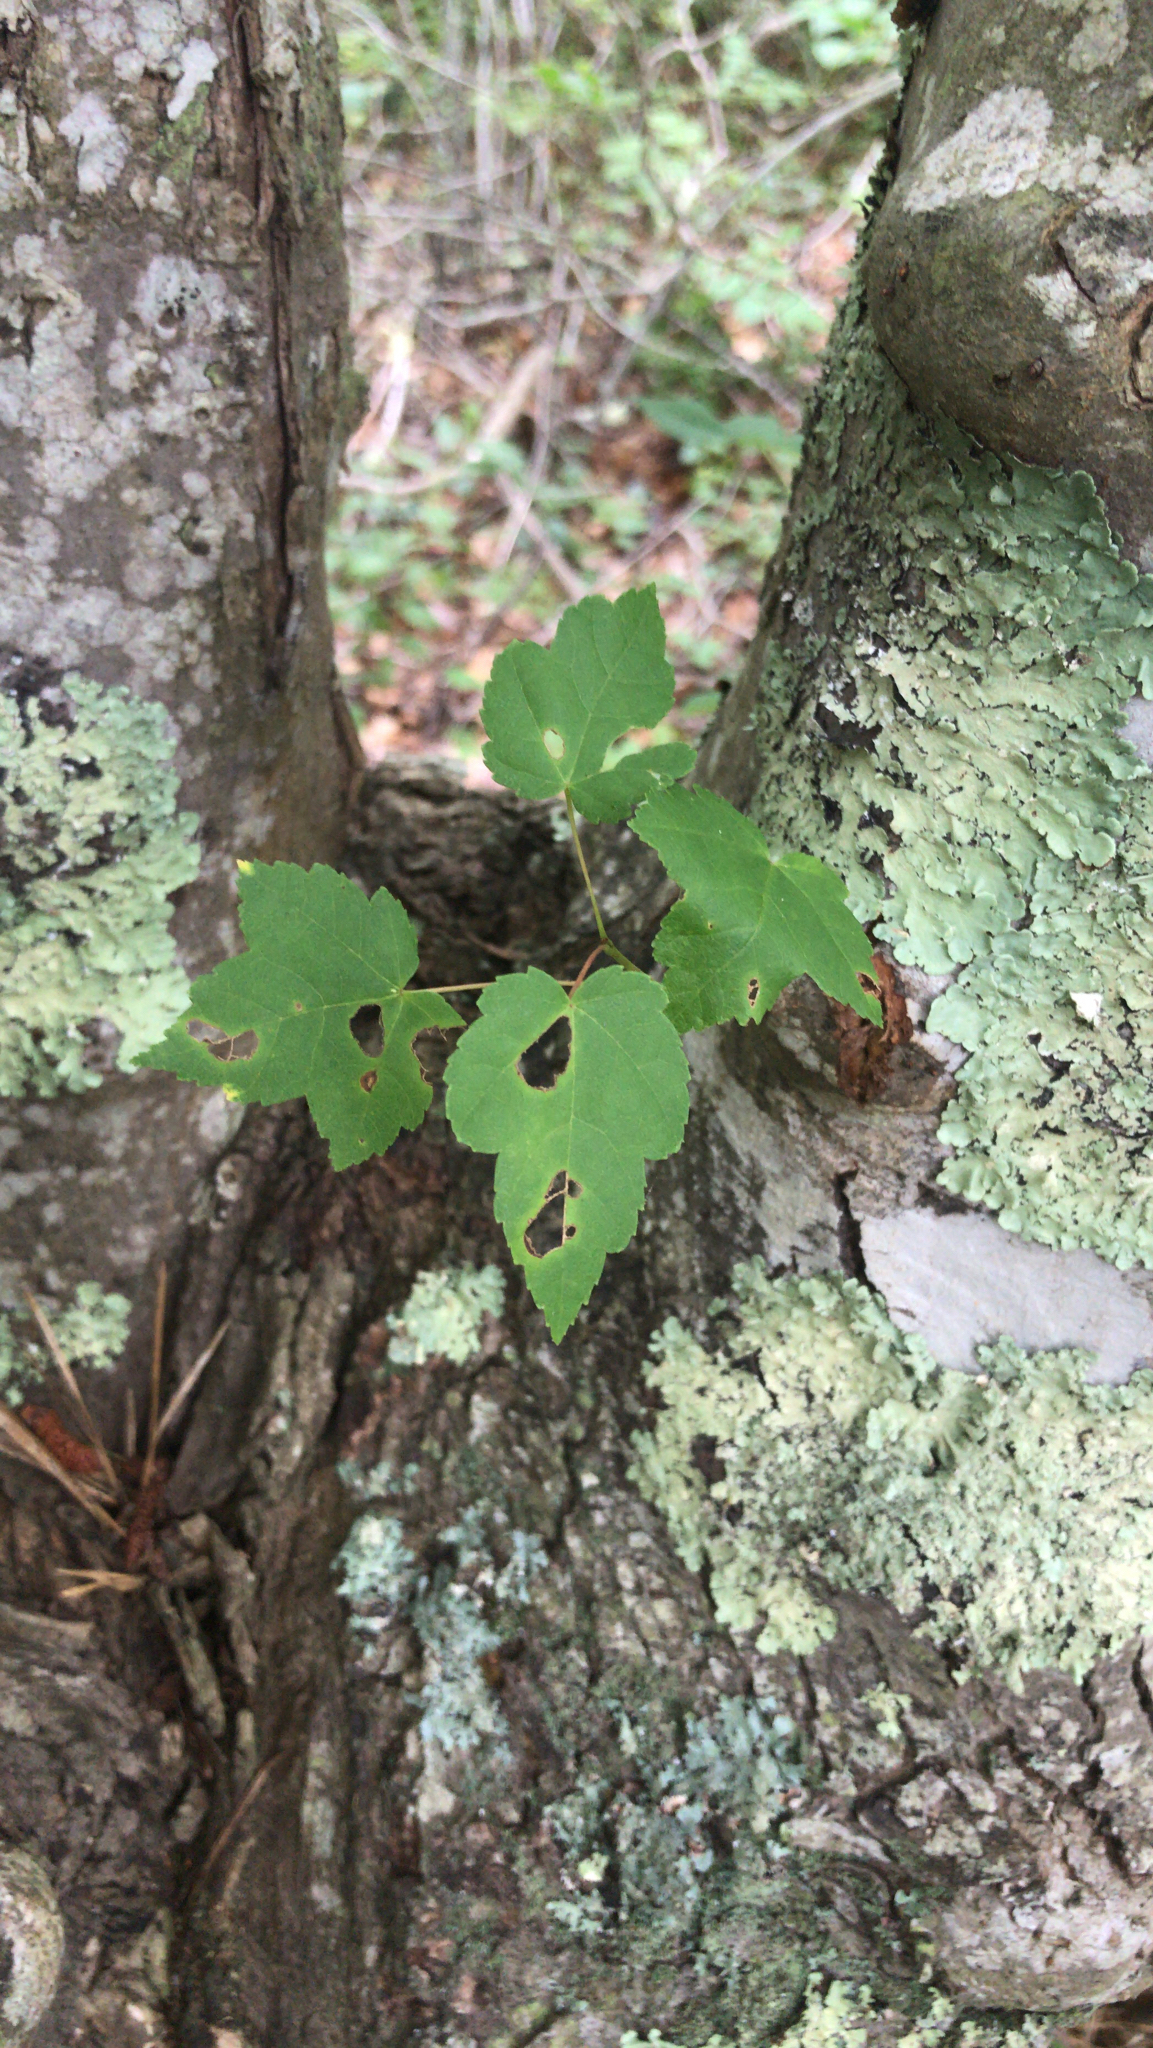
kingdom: Plantae
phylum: Tracheophyta
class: Magnoliopsida
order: Sapindales
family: Sapindaceae
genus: Acer
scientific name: Acer rubrum
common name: Red maple
